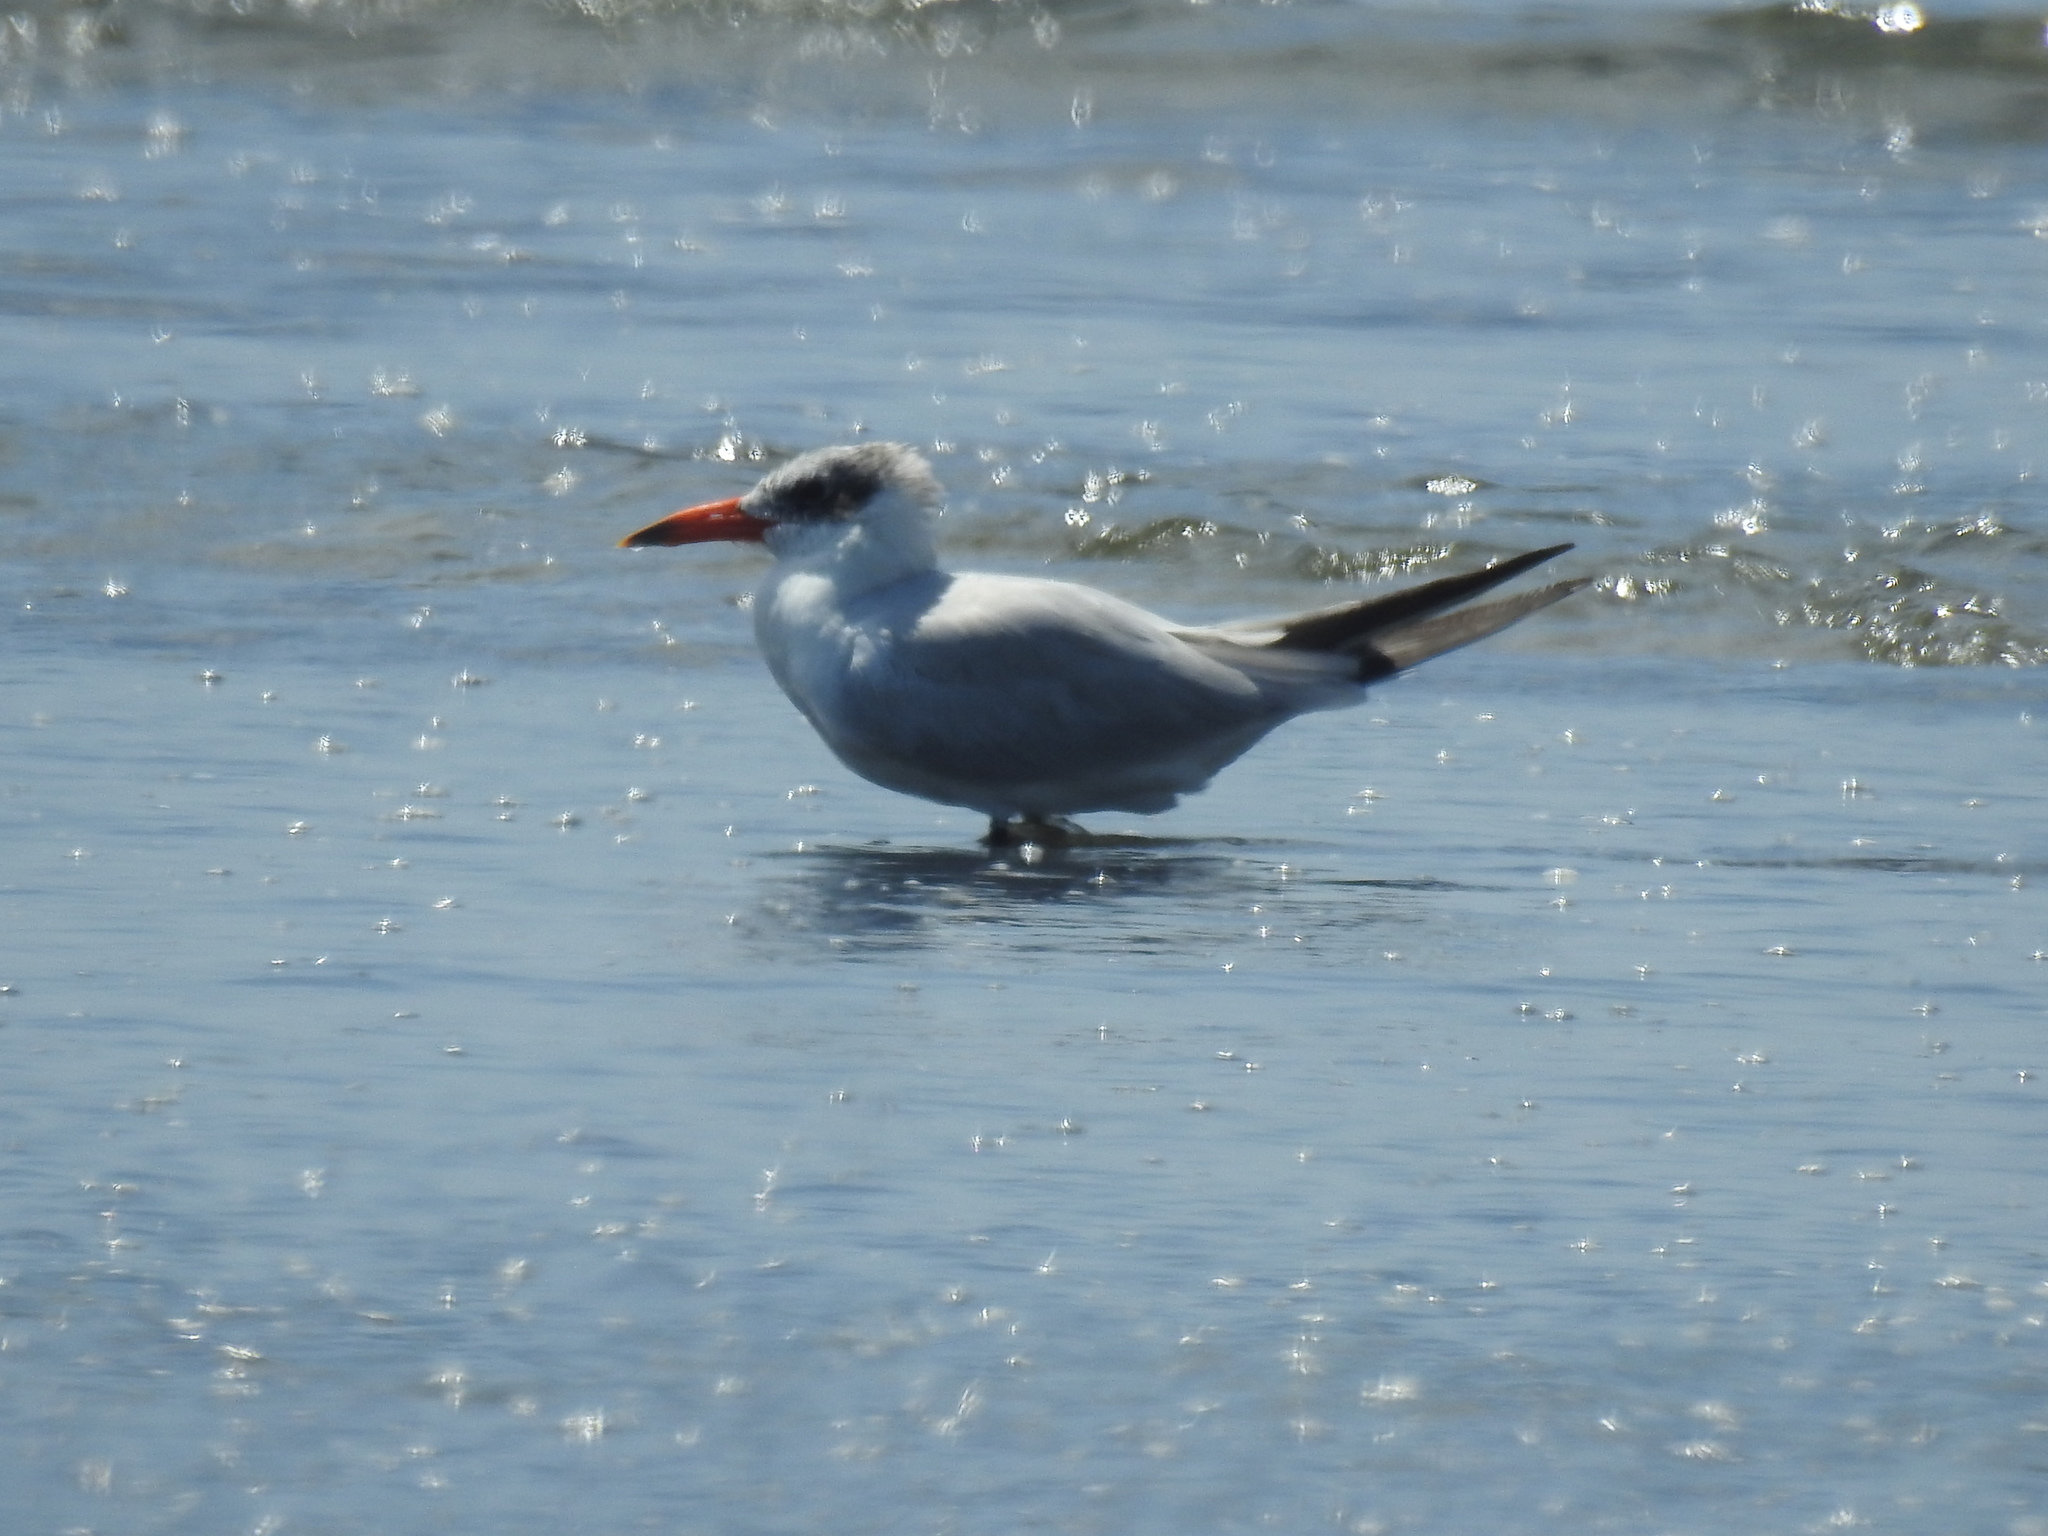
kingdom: Animalia
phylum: Chordata
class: Aves
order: Charadriiformes
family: Laridae
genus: Hydroprogne
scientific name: Hydroprogne caspia
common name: Caspian tern
